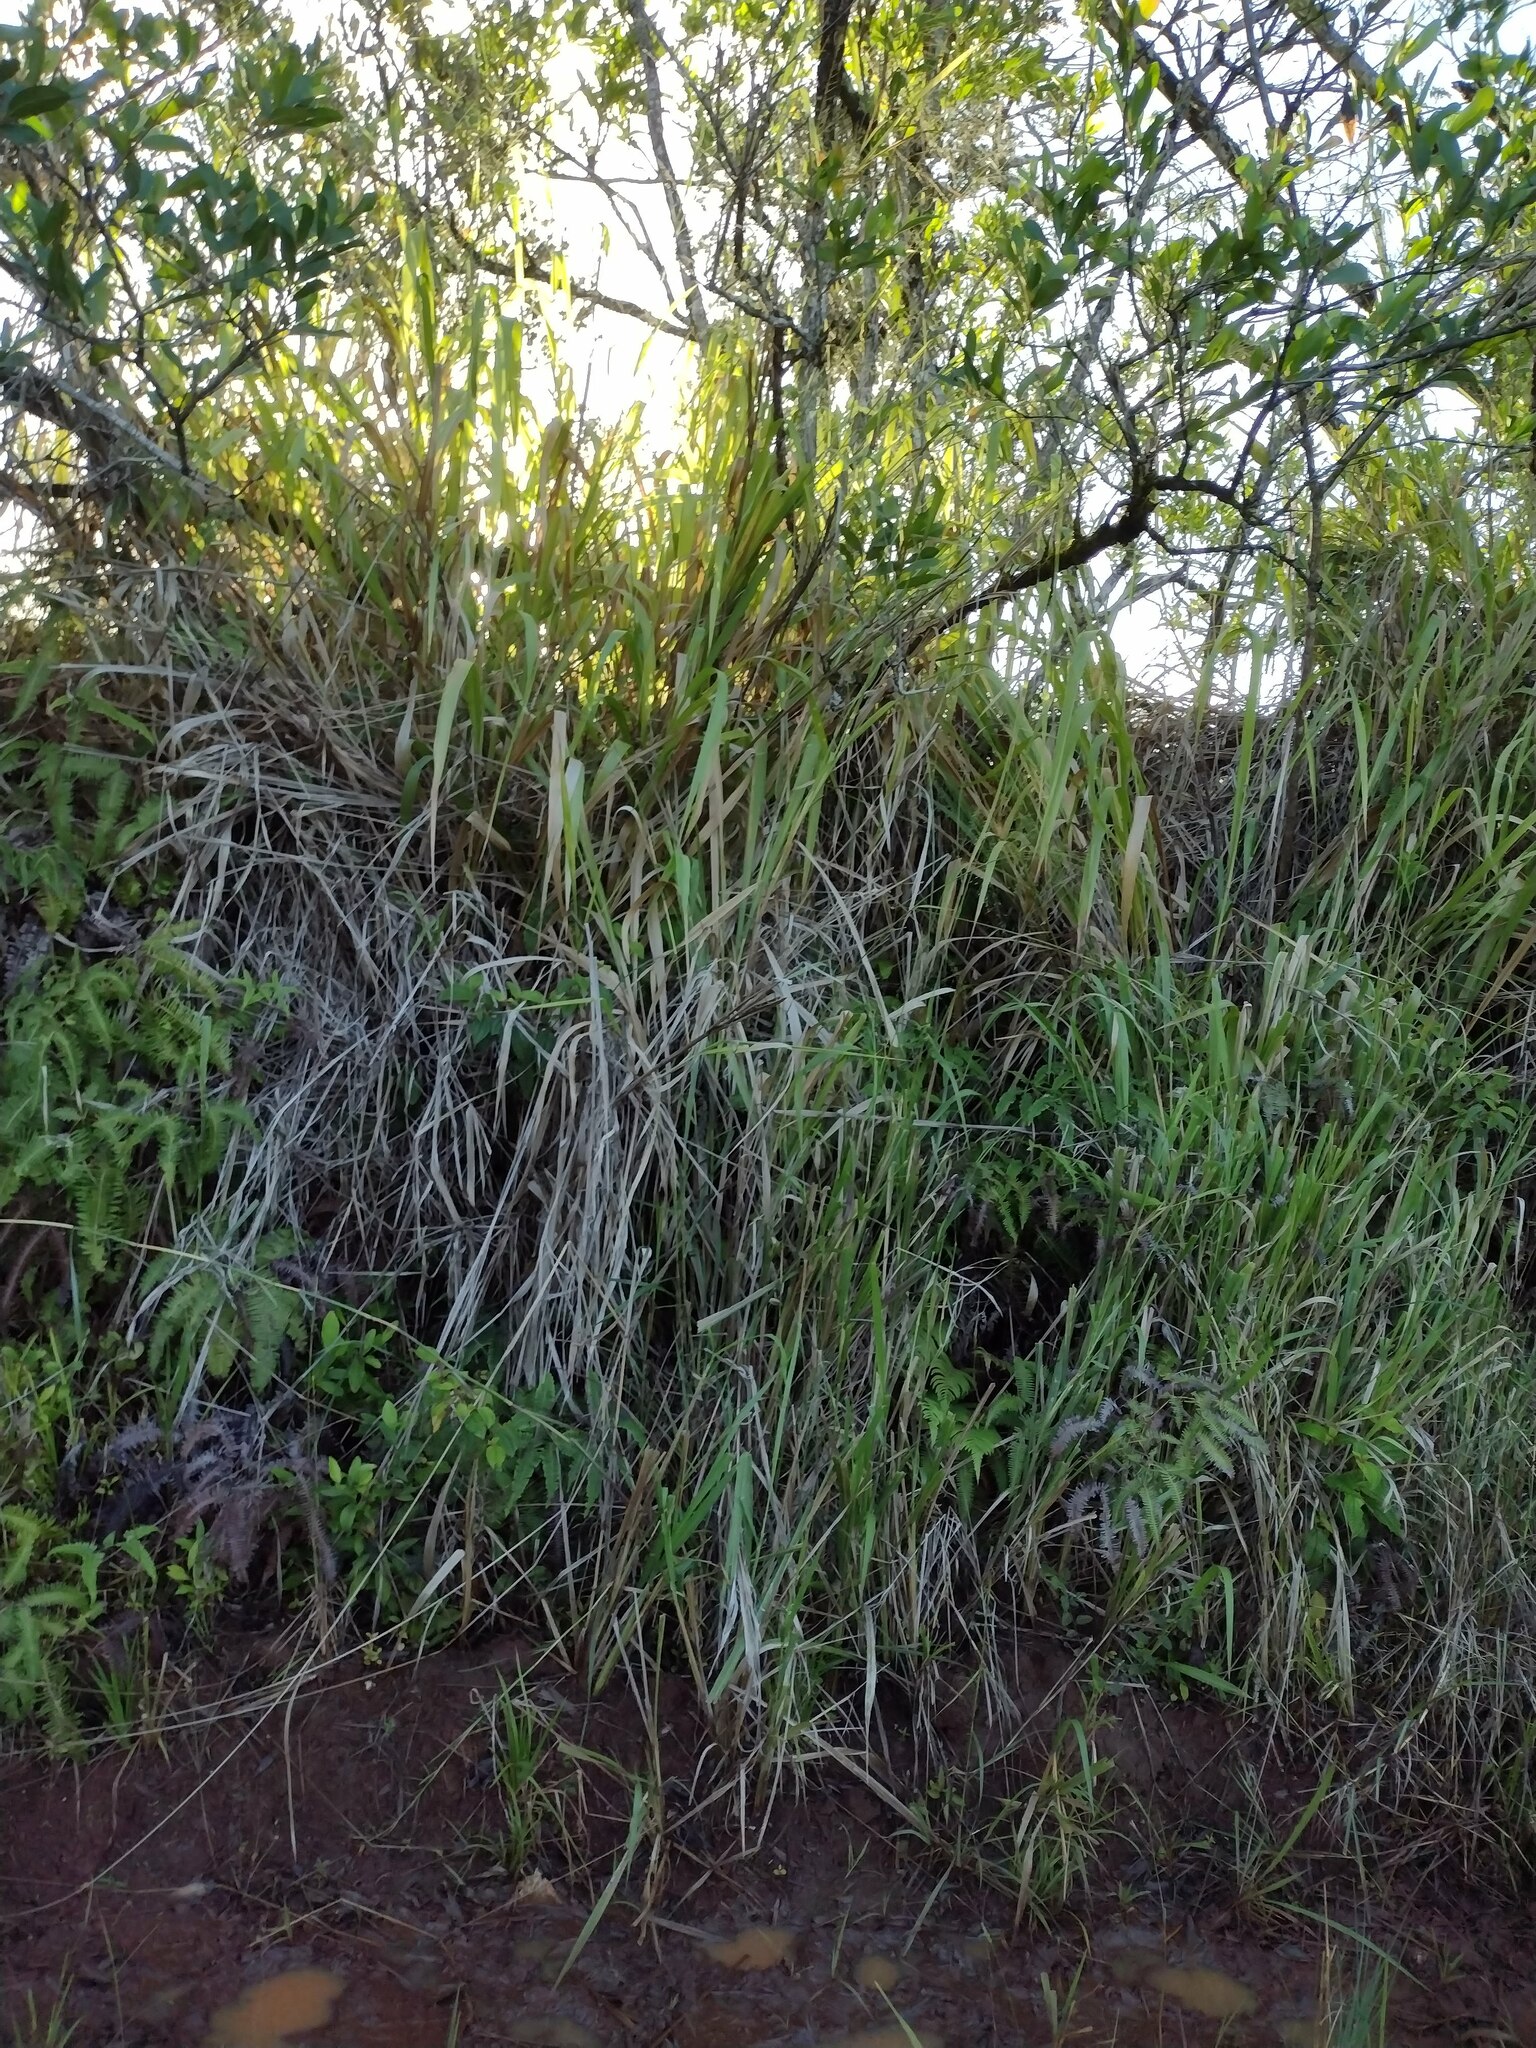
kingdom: Plantae
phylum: Tracheophyta
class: Liliopsida
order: Poales
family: Poaceae
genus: Megathyrsus
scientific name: Megathyrsus maximus
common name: Guineagrass
